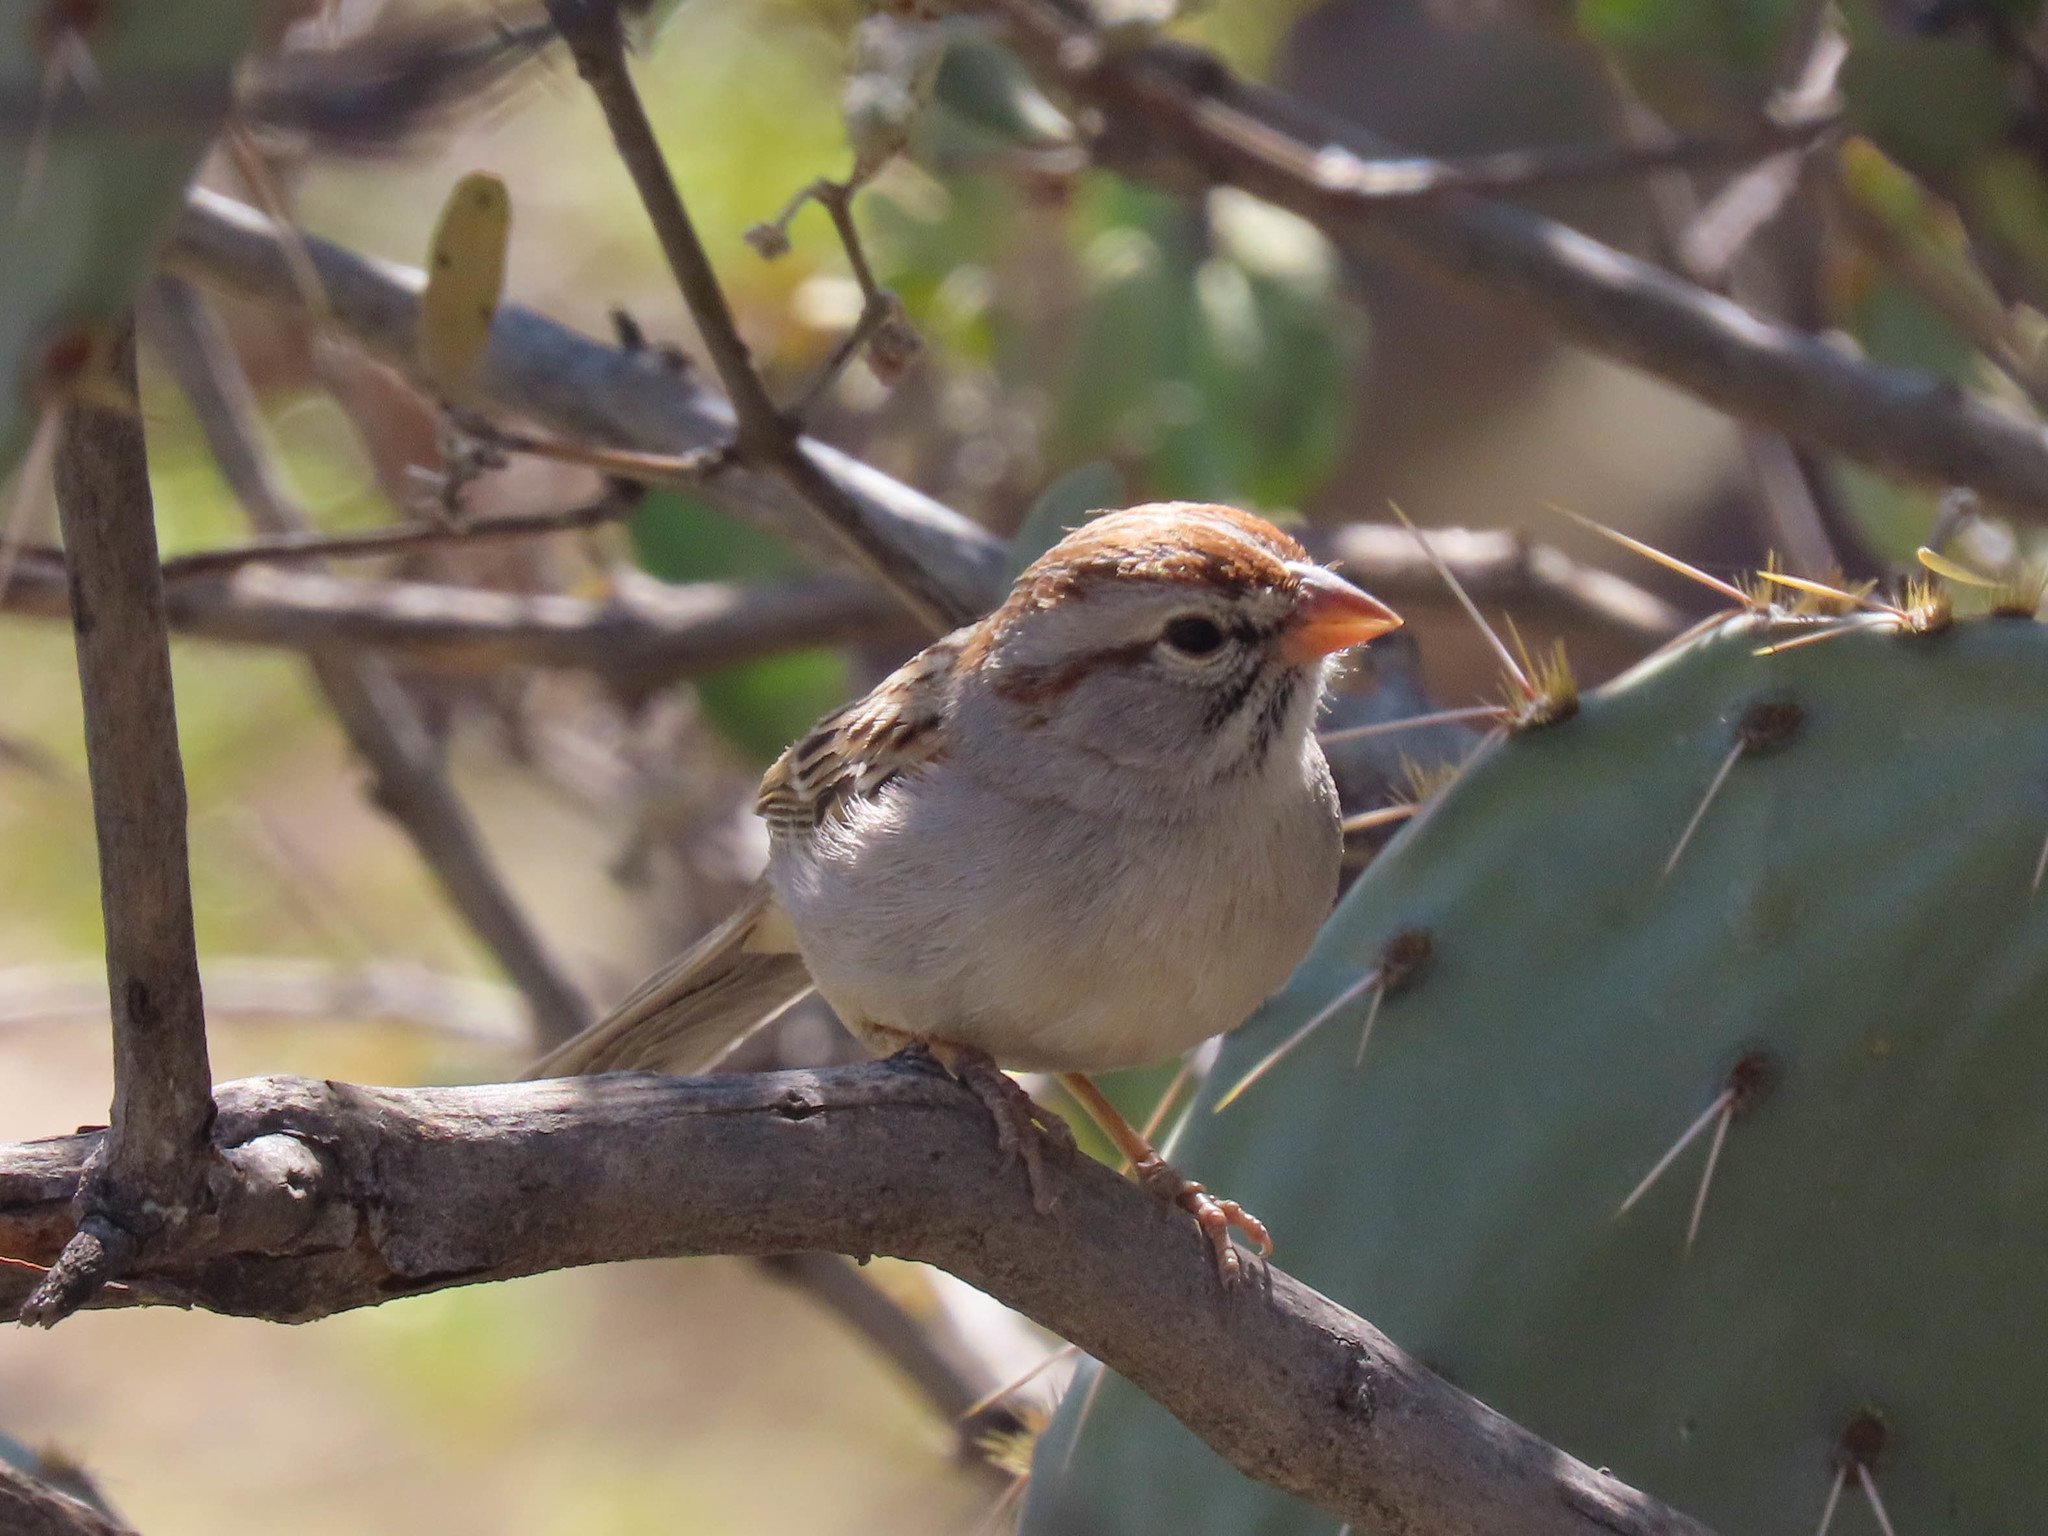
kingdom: Animalia
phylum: Chordata
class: Aves
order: Passeriformes
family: Passerellidae
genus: Peucaea
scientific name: Peucaea carpalis
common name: Rufous-winged sparrow
